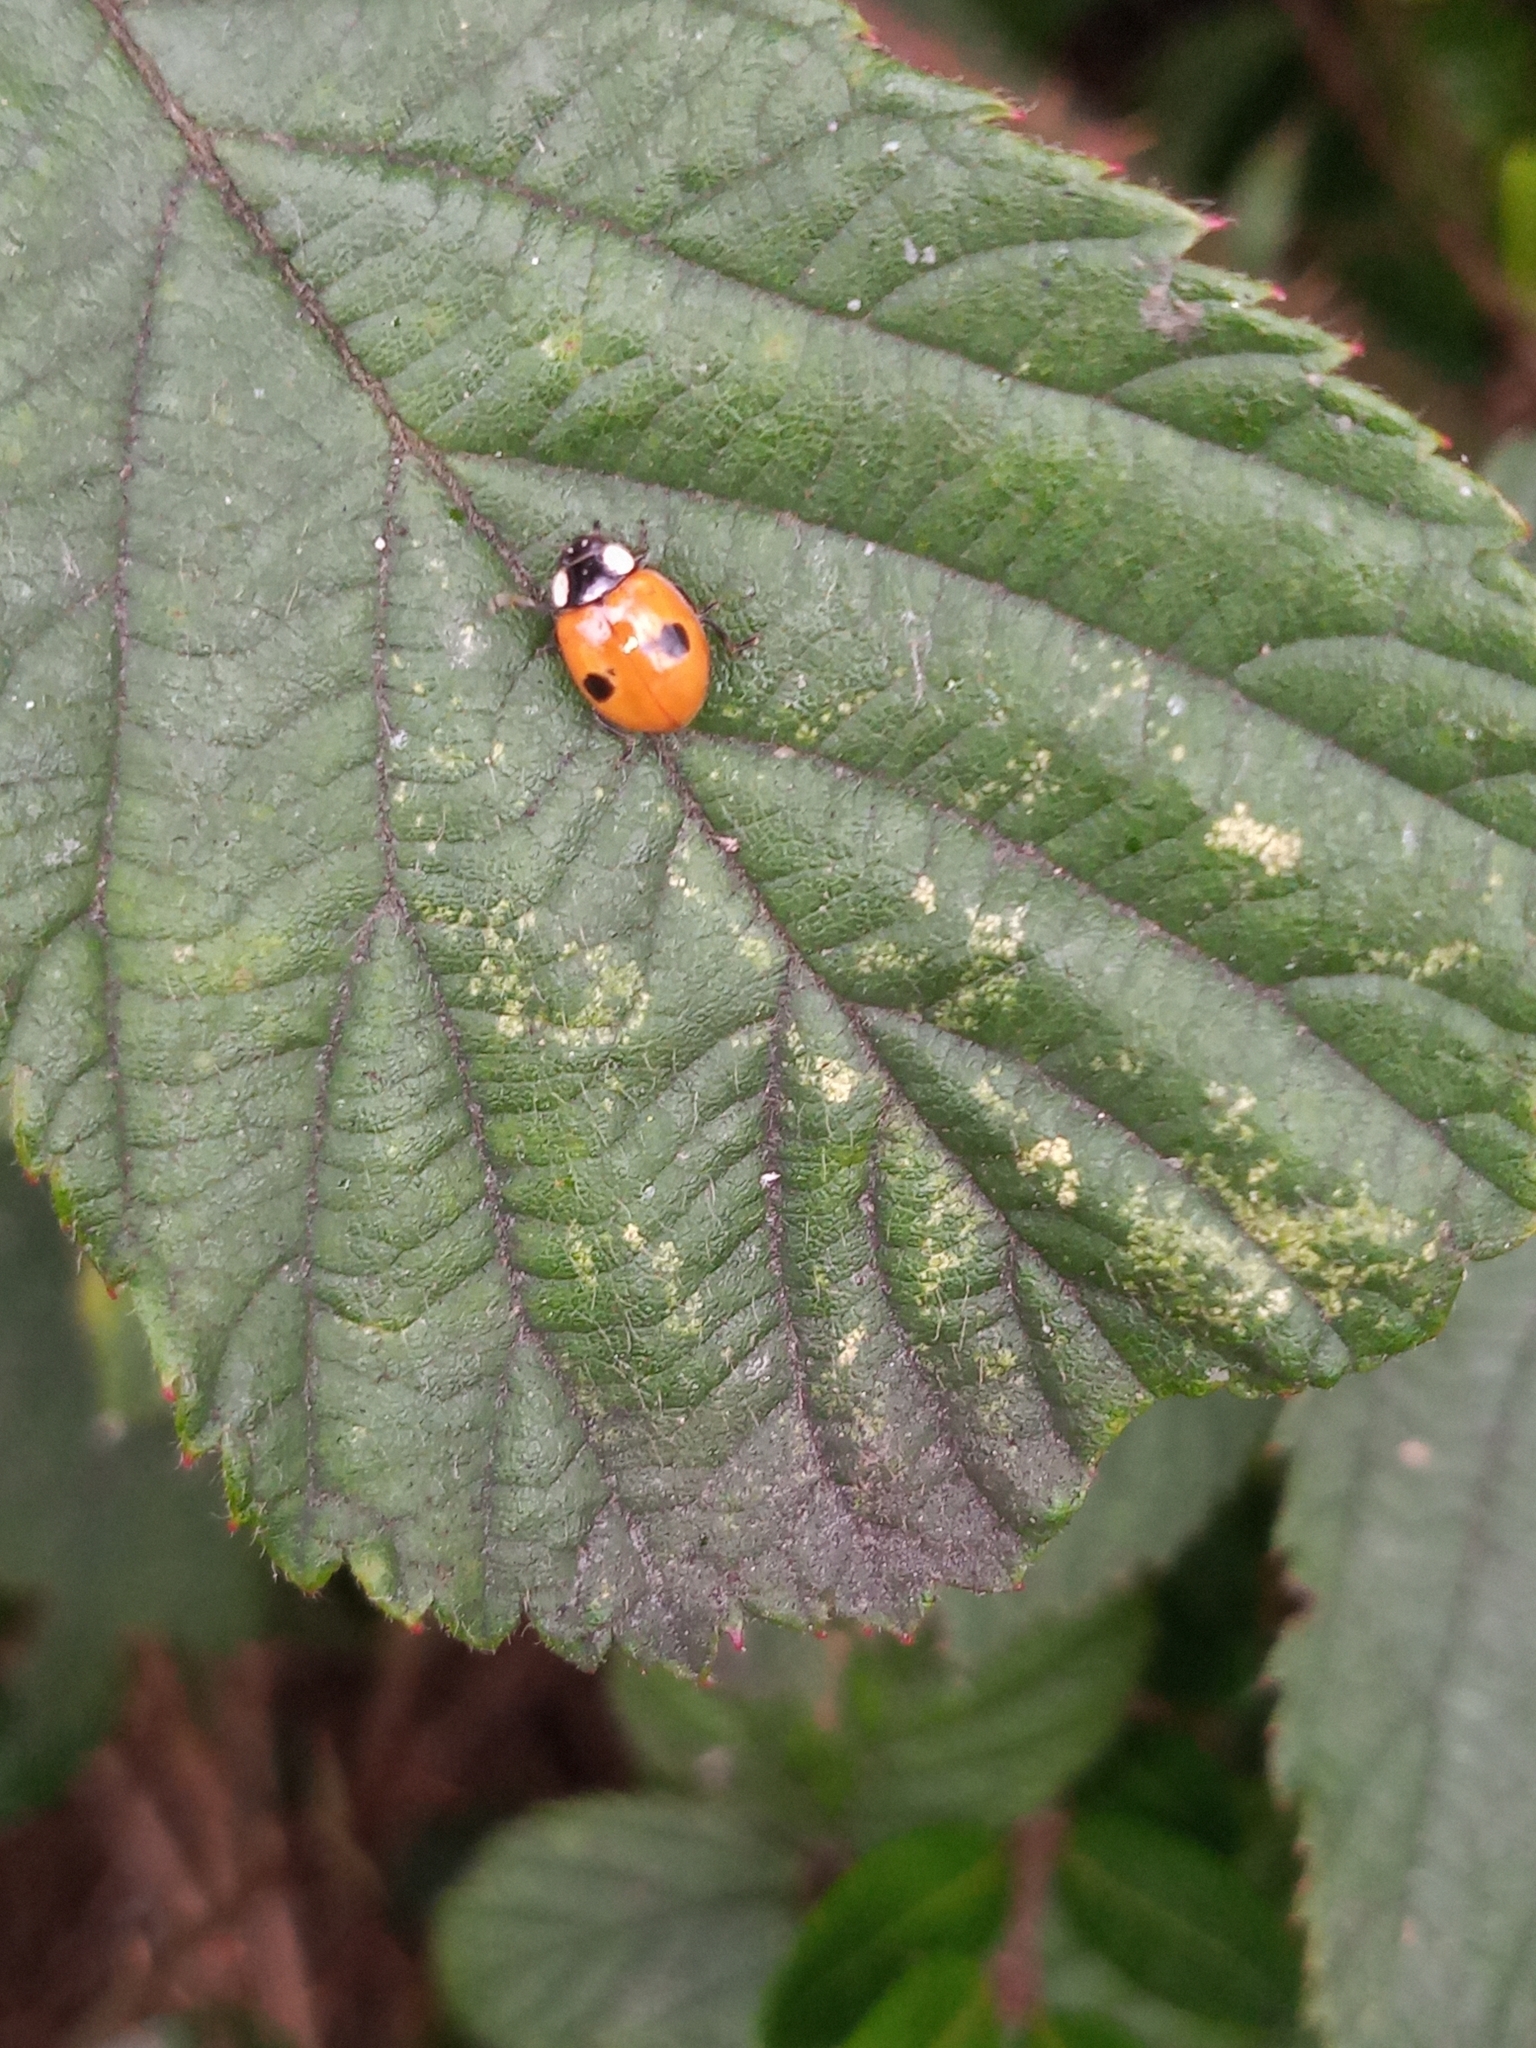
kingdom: Animalia
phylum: Arthropoda
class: Insecta
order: Coleoptera
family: Coccinellidae
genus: Adalia
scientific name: Adalia bipunctata
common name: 2-spot ladybird
